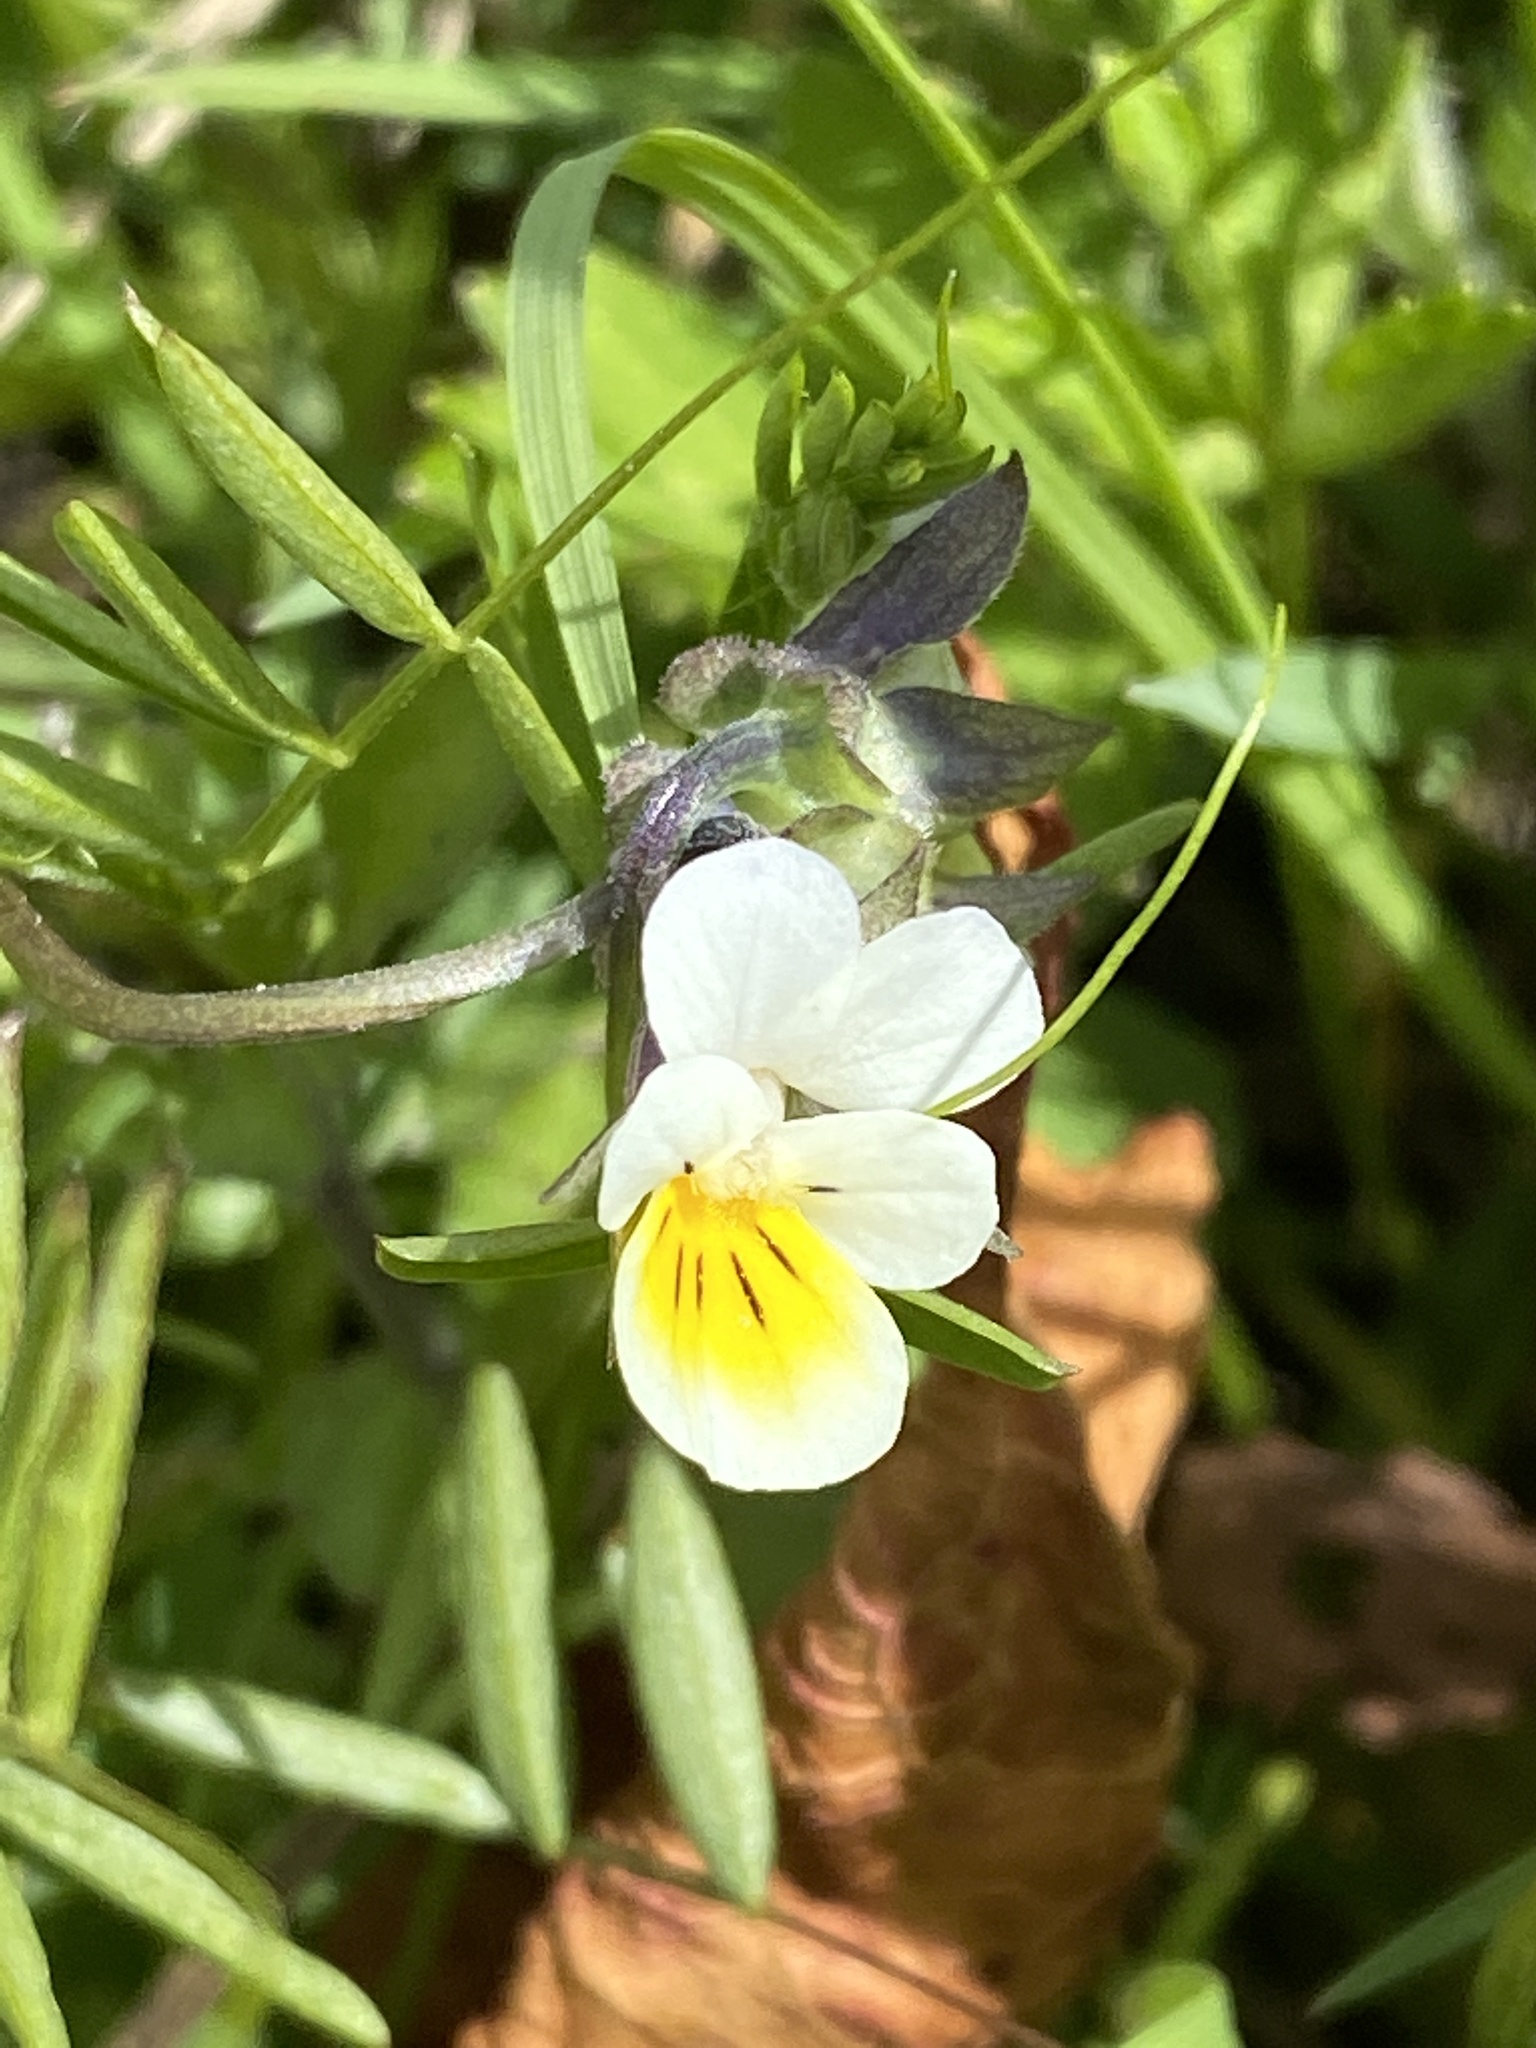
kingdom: Plantae
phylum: Tracheophyta
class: Magnoliopsida
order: Malpighiales
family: Violaceae
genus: Viola
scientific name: Viola arvensis
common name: Field pansy
